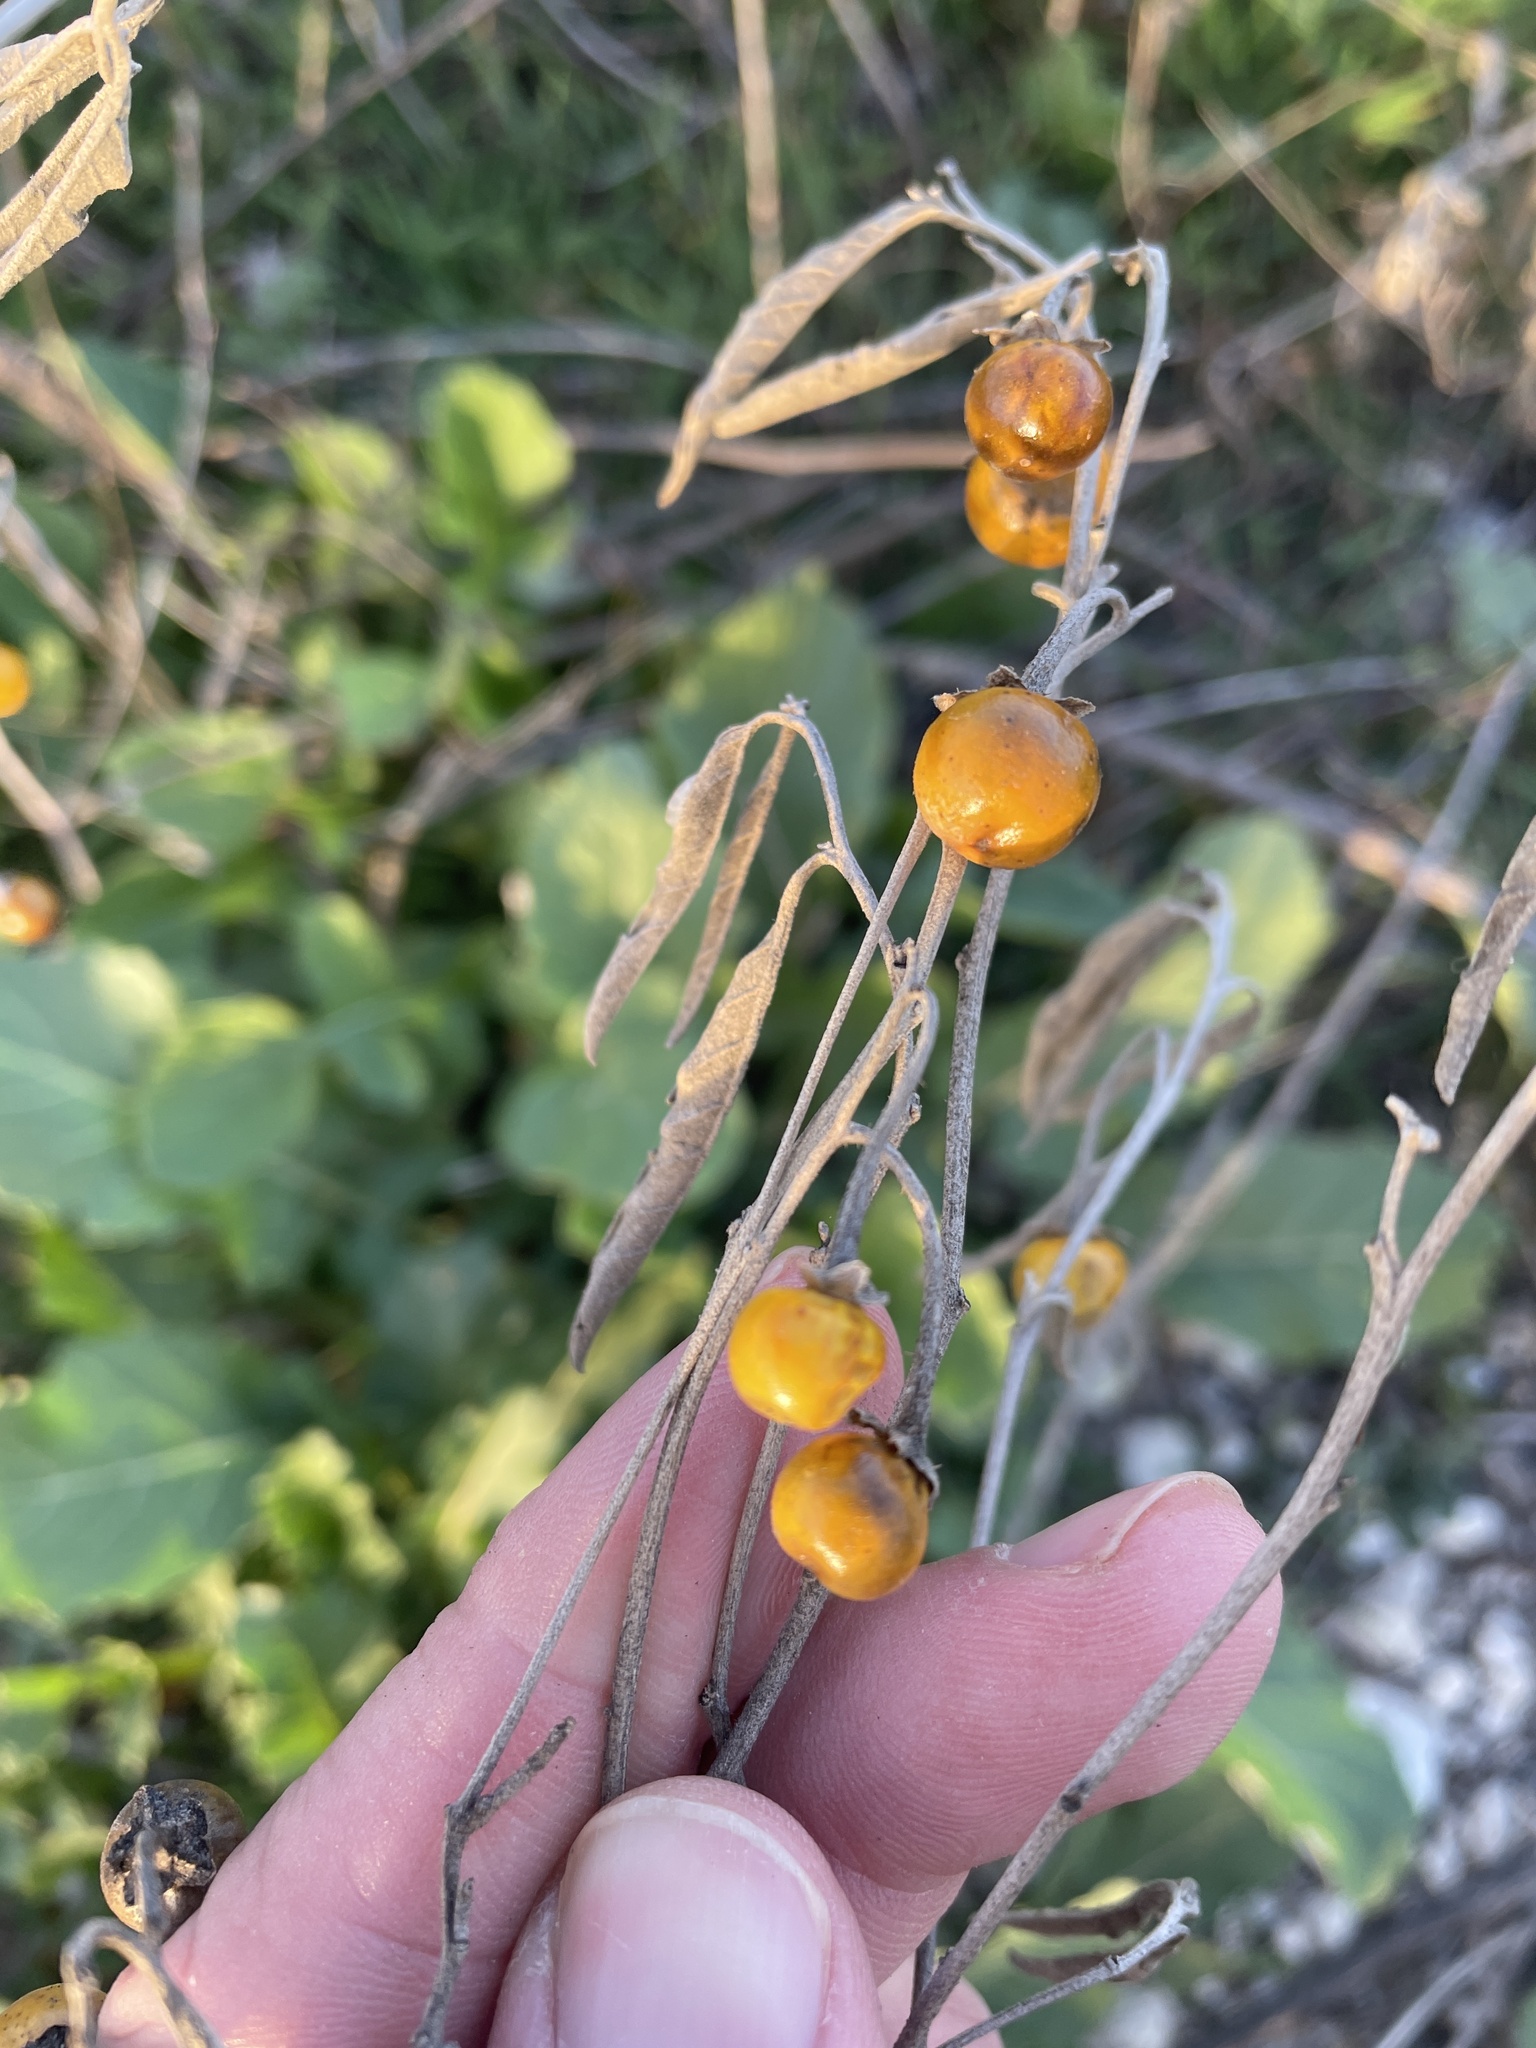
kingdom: Plantae
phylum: Tracheophyta
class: Magnoliopsida
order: Solanales
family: Solanaceae
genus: Solanum
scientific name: Solanum elaeagnifolium
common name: Silverleaf nightshade
